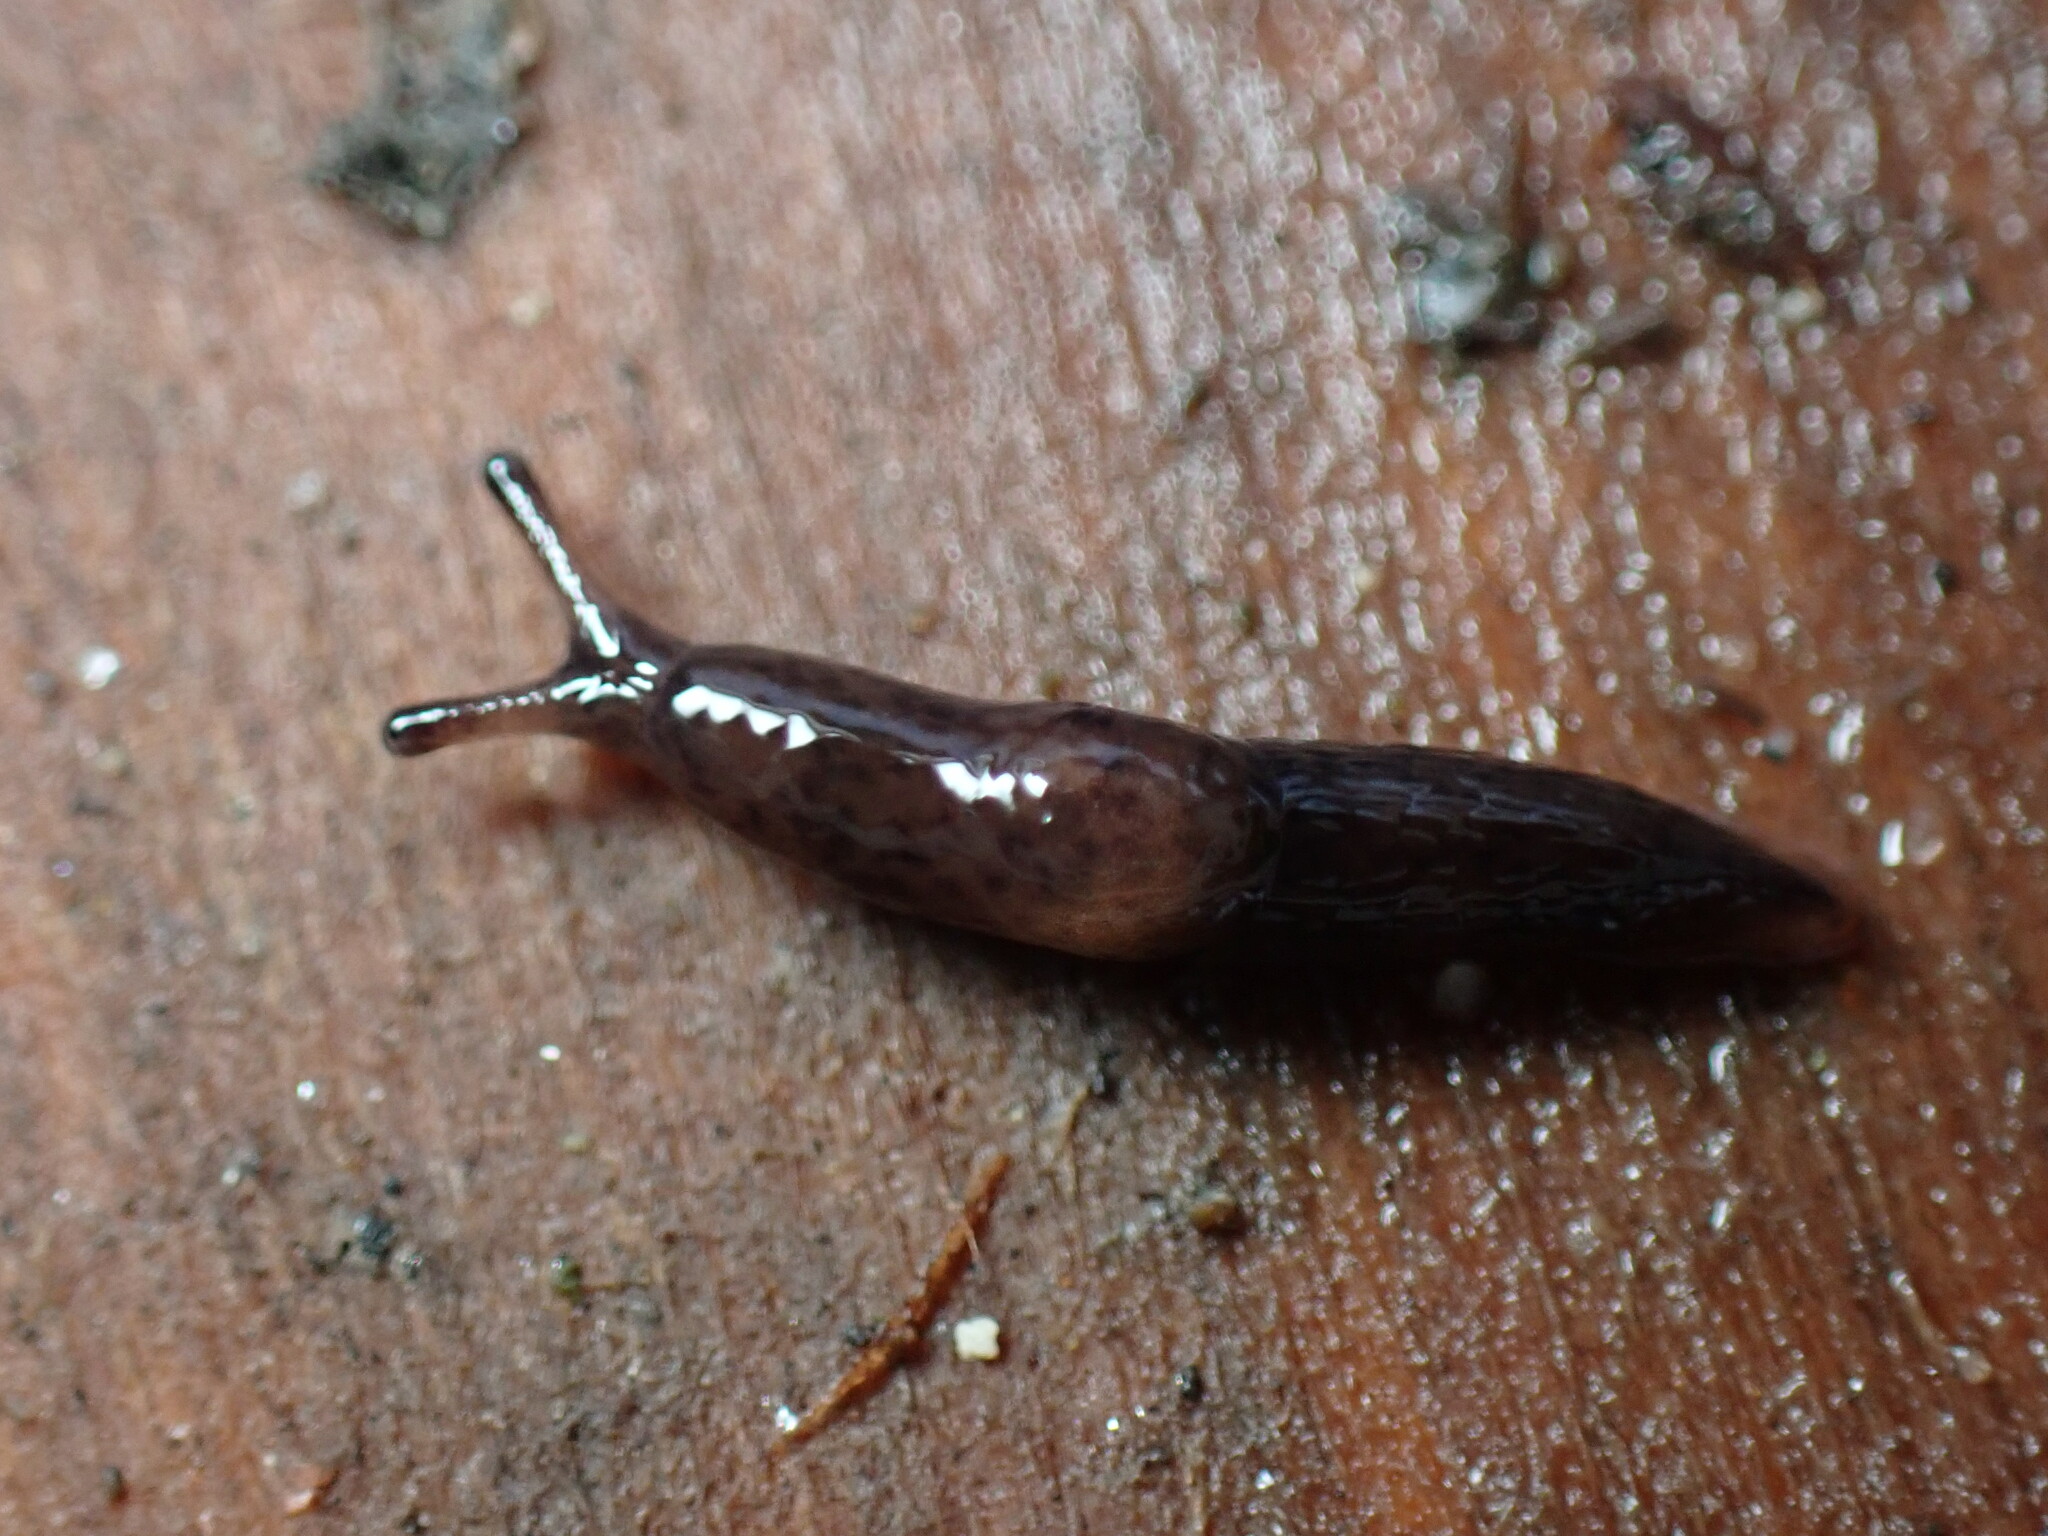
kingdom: Animalia
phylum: Mollusca
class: Gastropoda
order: Stylommatophora
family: Agriolimacidae
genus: Deroceras
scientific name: Deroceras reticulatum
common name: Gray field slug
